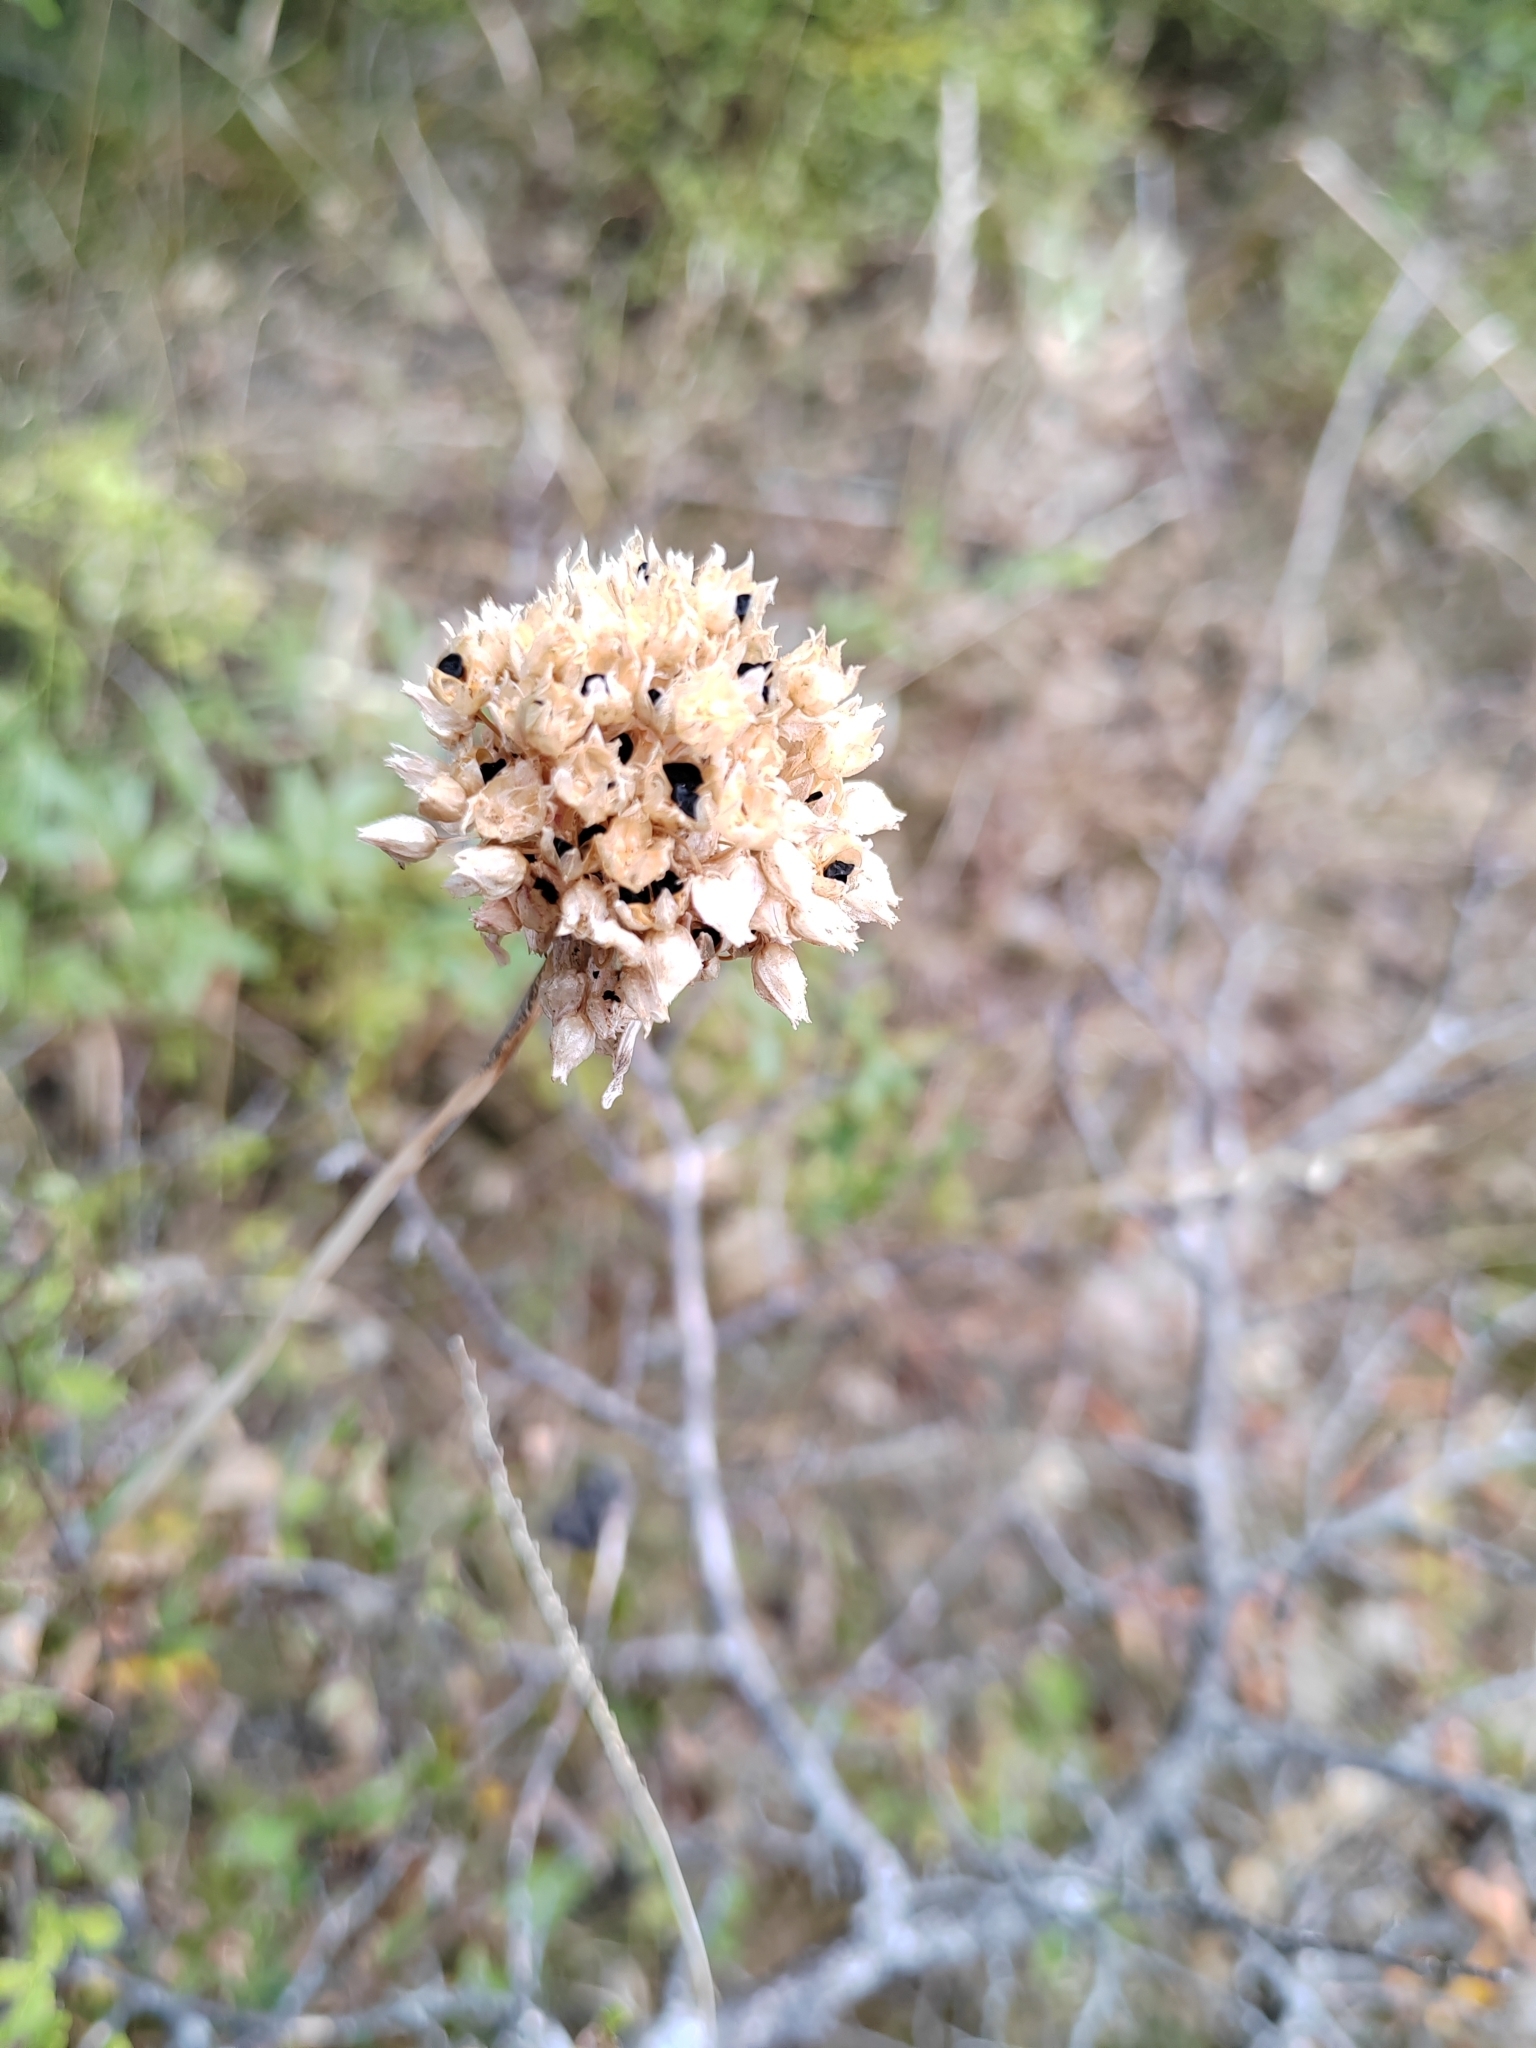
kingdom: Plantae
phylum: Tracheophyta
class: Liliopsida
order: Asparagales
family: Amaryllidaceae
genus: Allium
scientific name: Allium rotundum
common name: Sand leek
